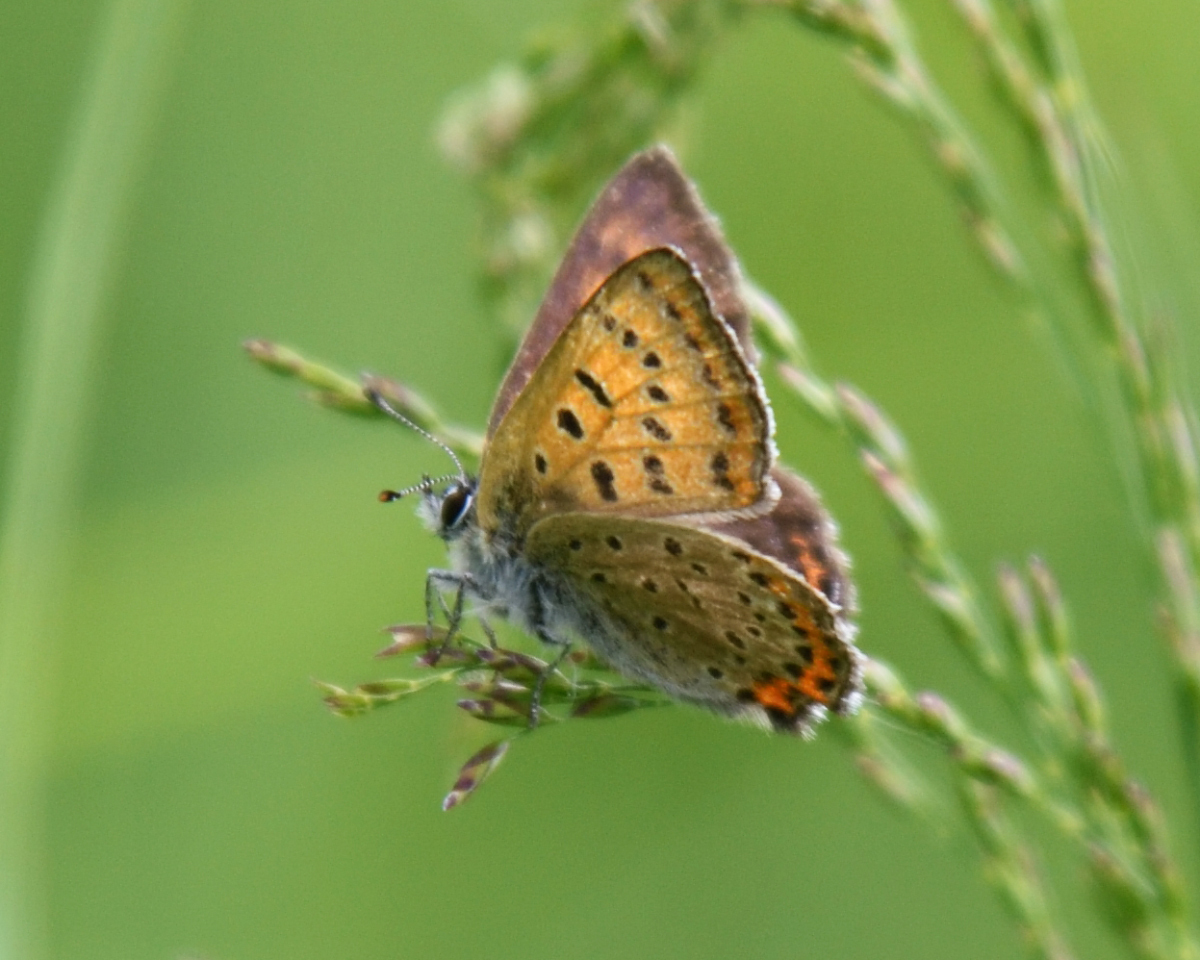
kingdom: Animalia
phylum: Arthropoda
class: Insecta
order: Lepidoptera
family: Lycaenidae
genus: Helleia
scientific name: Helleia helle
